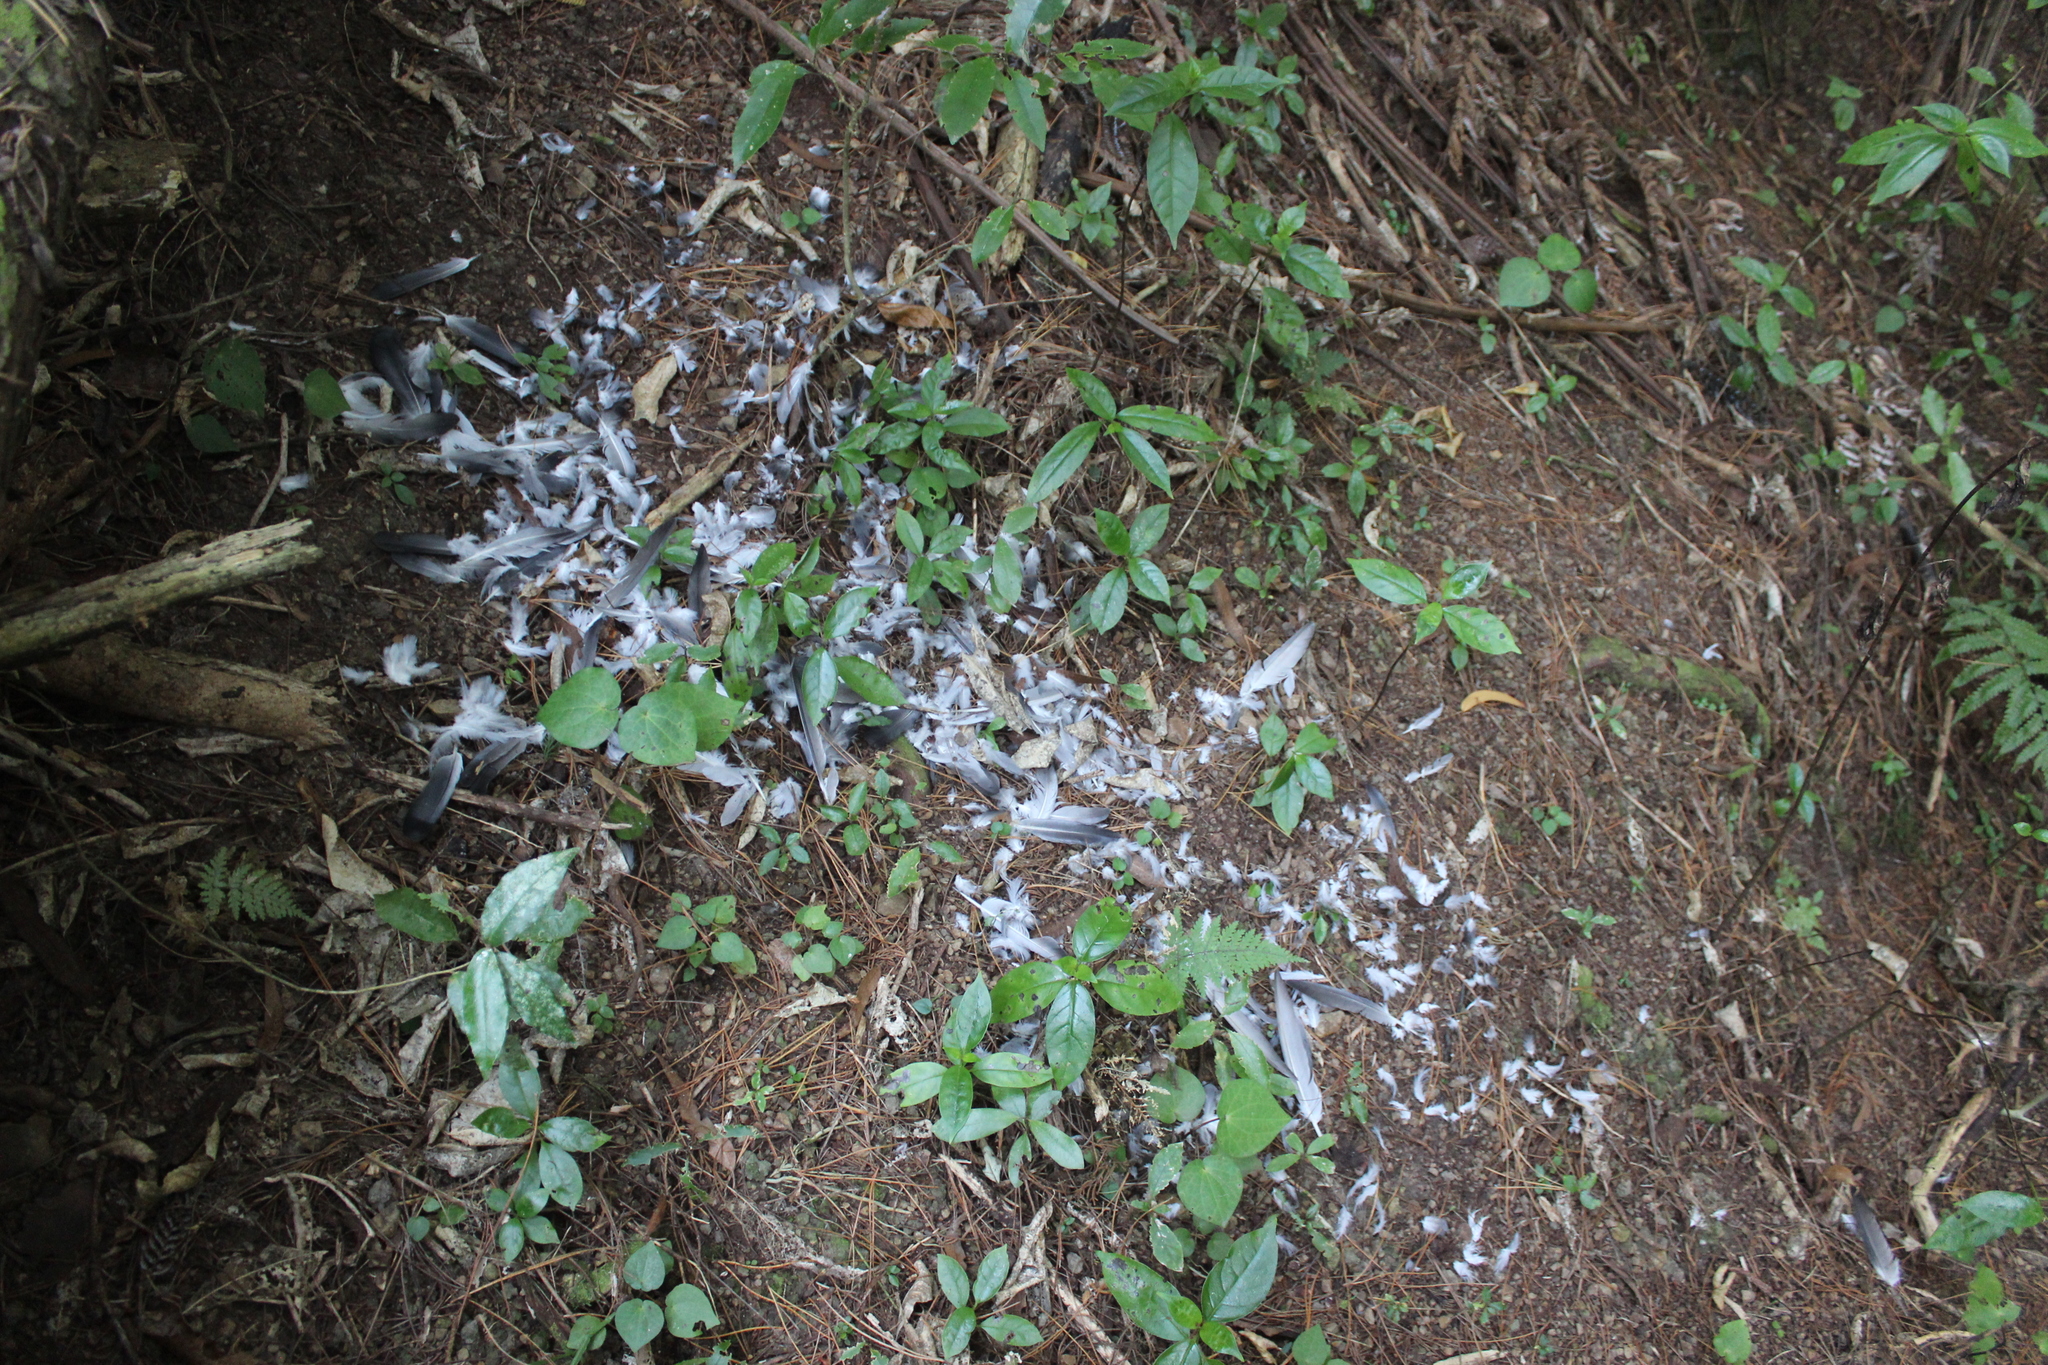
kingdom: Animalia
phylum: Chordata
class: Aves
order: Falconiformes
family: Falconidae
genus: Falco
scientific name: Falco novaeseelandiae
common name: New zealand falcon
